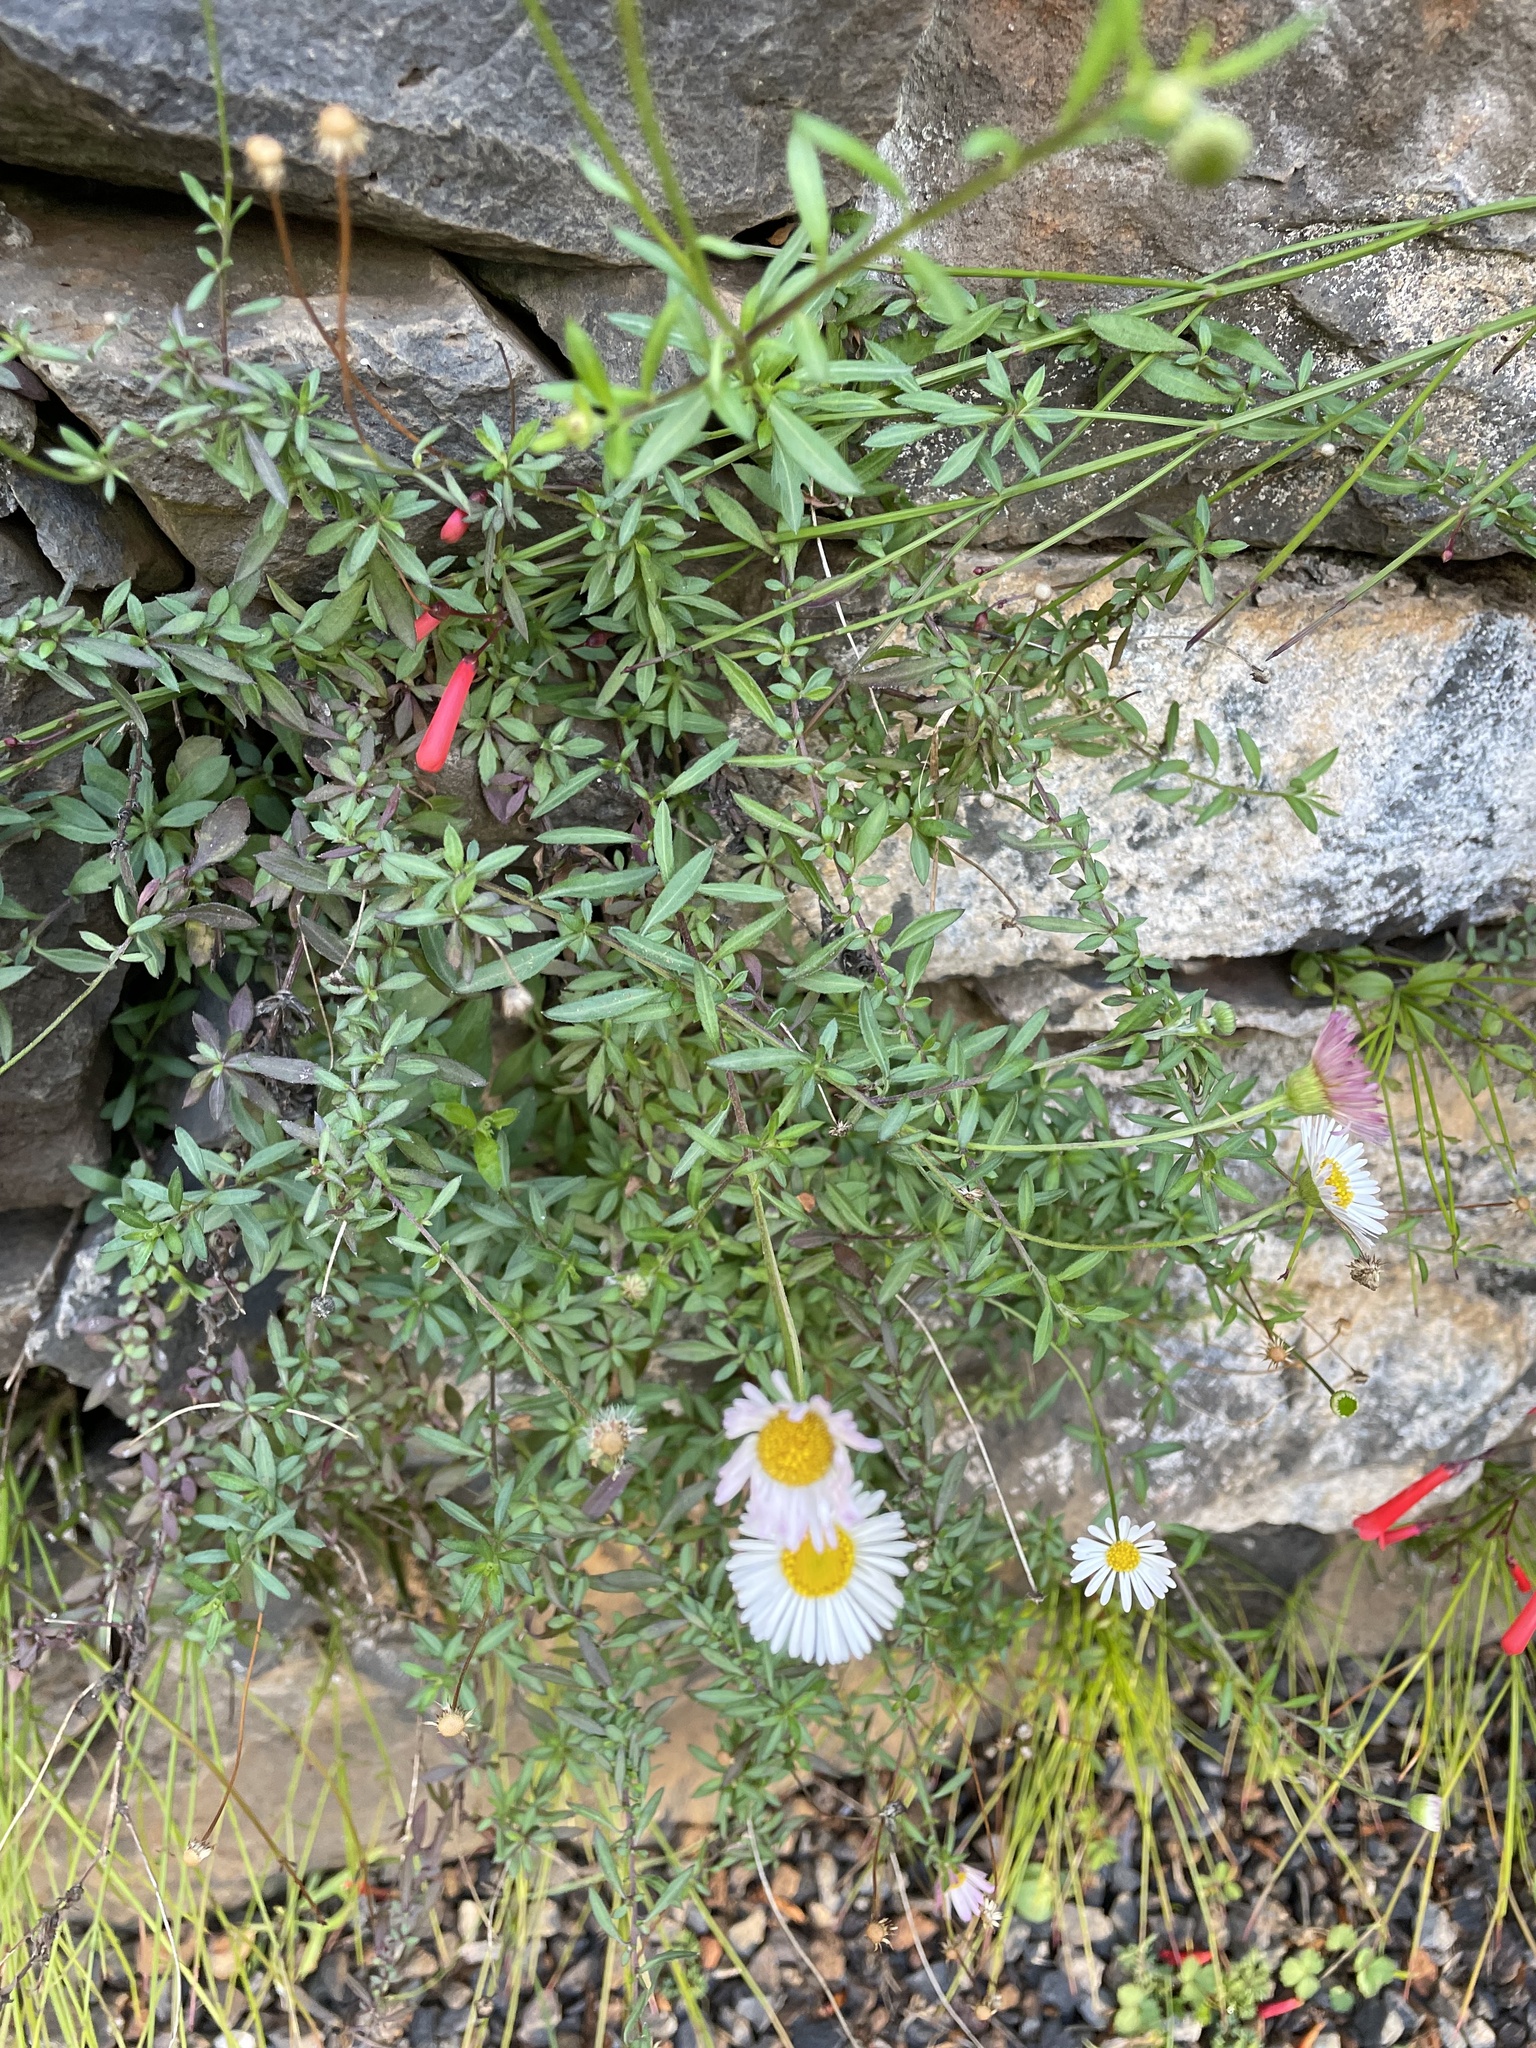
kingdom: Plantae
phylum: Tracheophyta
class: Magnoliopsida
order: Asterales
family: Asteraceae
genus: Erigeron
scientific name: Erigeron karvinskianus
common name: Mexican fleabane
